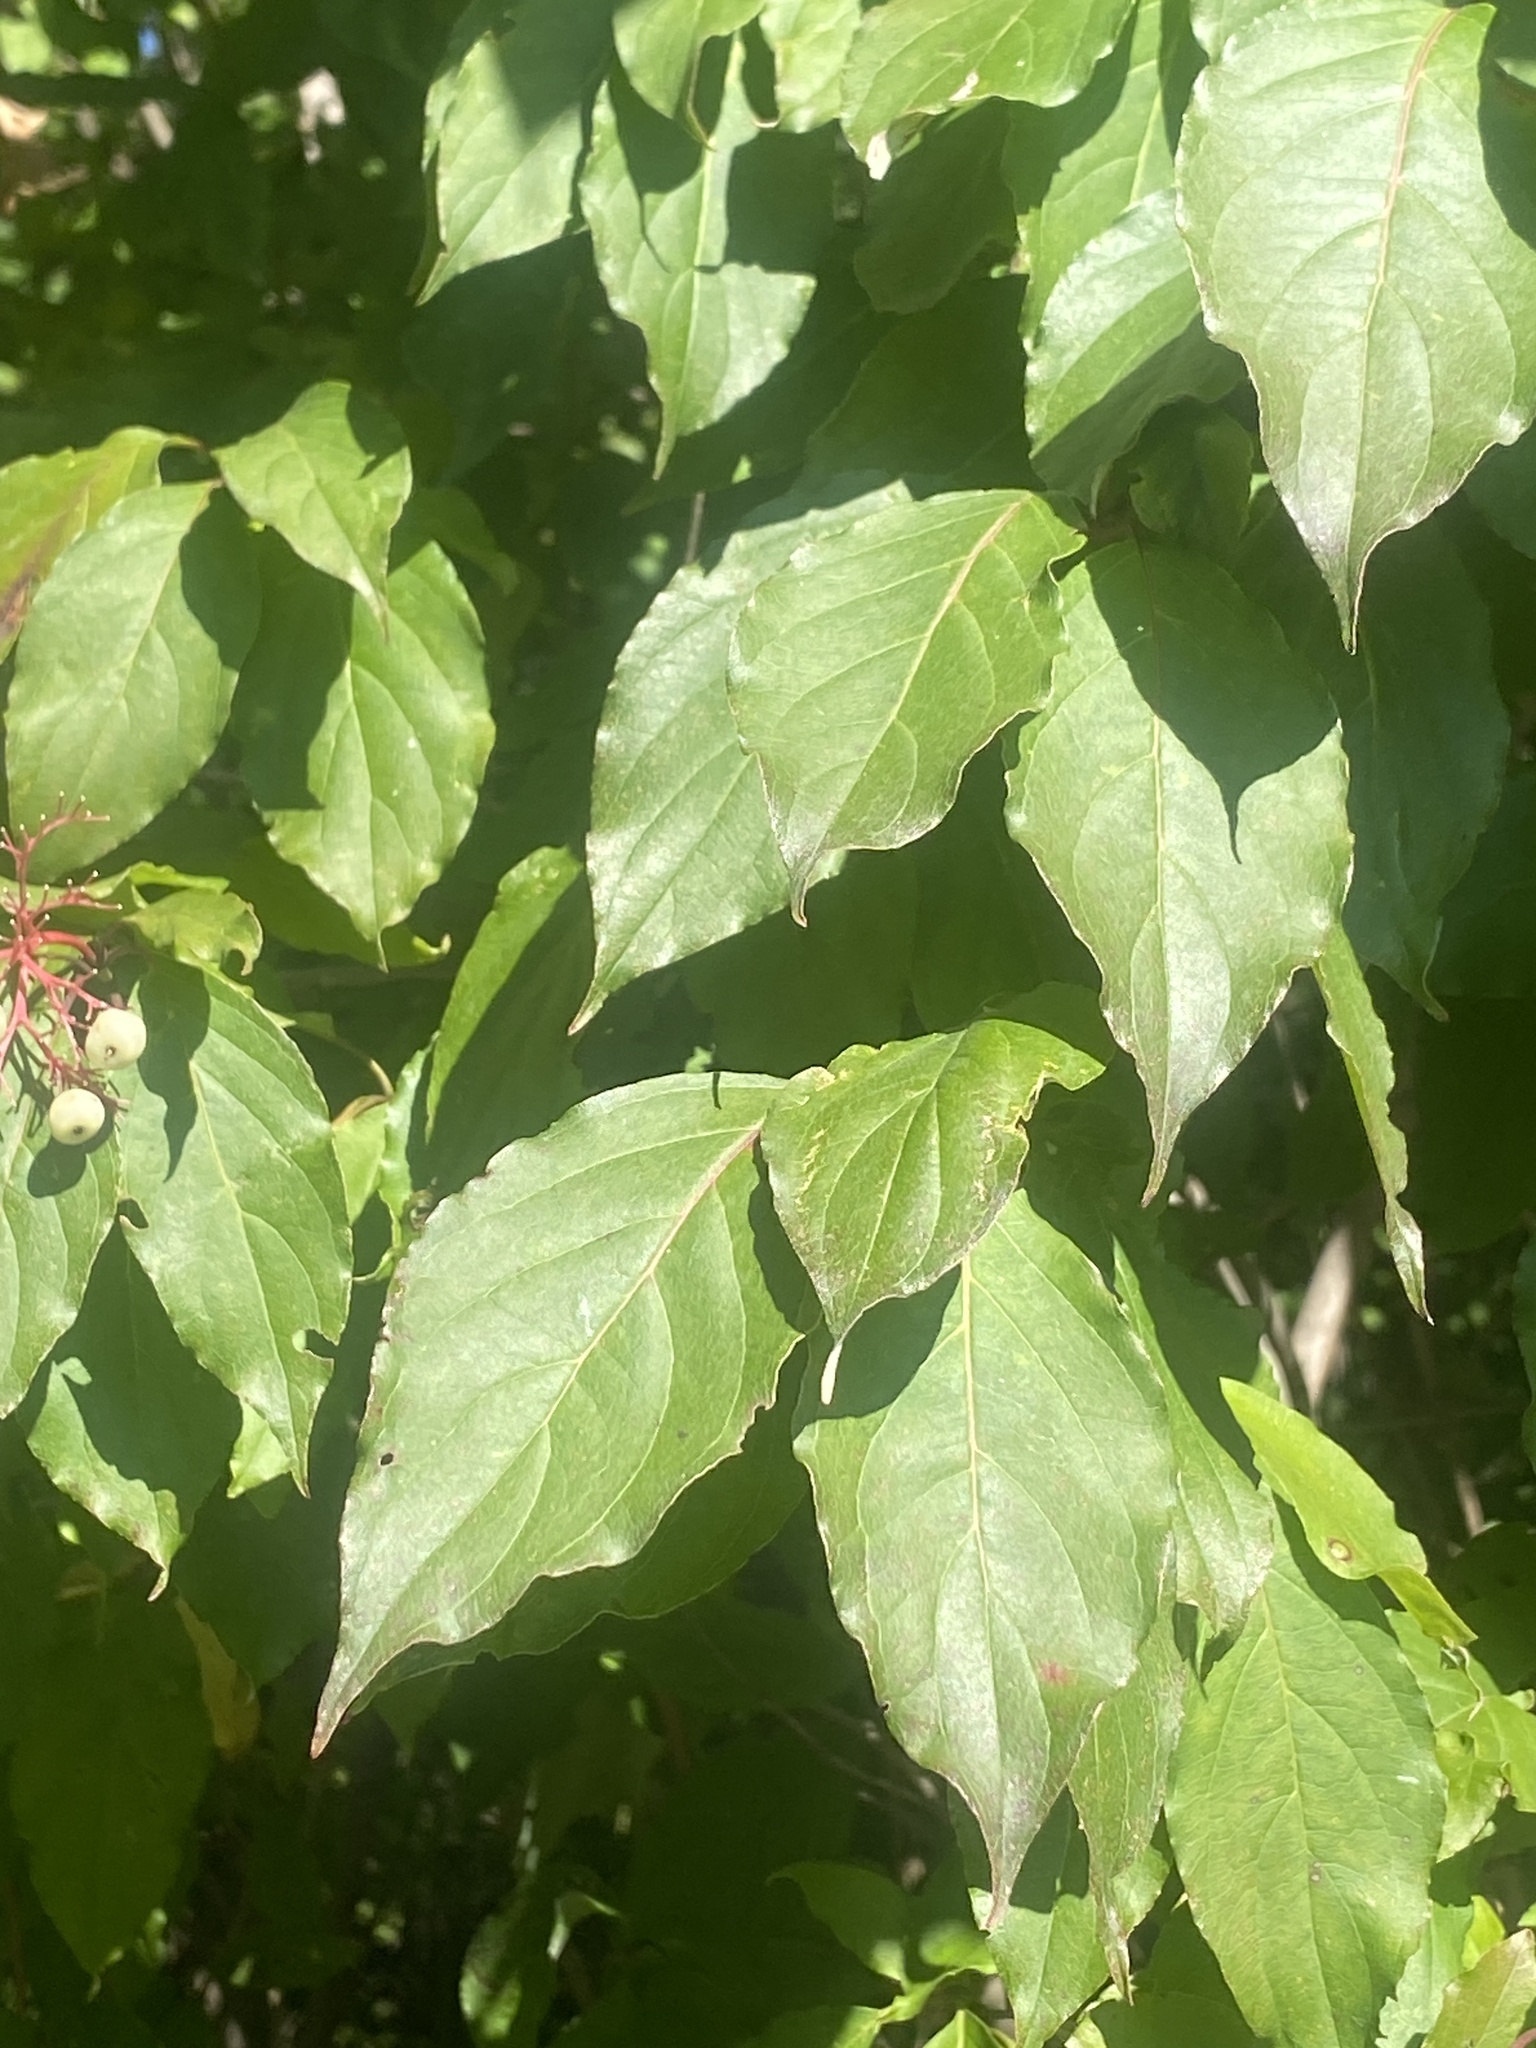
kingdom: Plantae
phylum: Tracheophyta
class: Magnoliopsida
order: Cornales
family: Cornaceae
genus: Cornus
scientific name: Cornus racemosa
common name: Panicled dogwood
